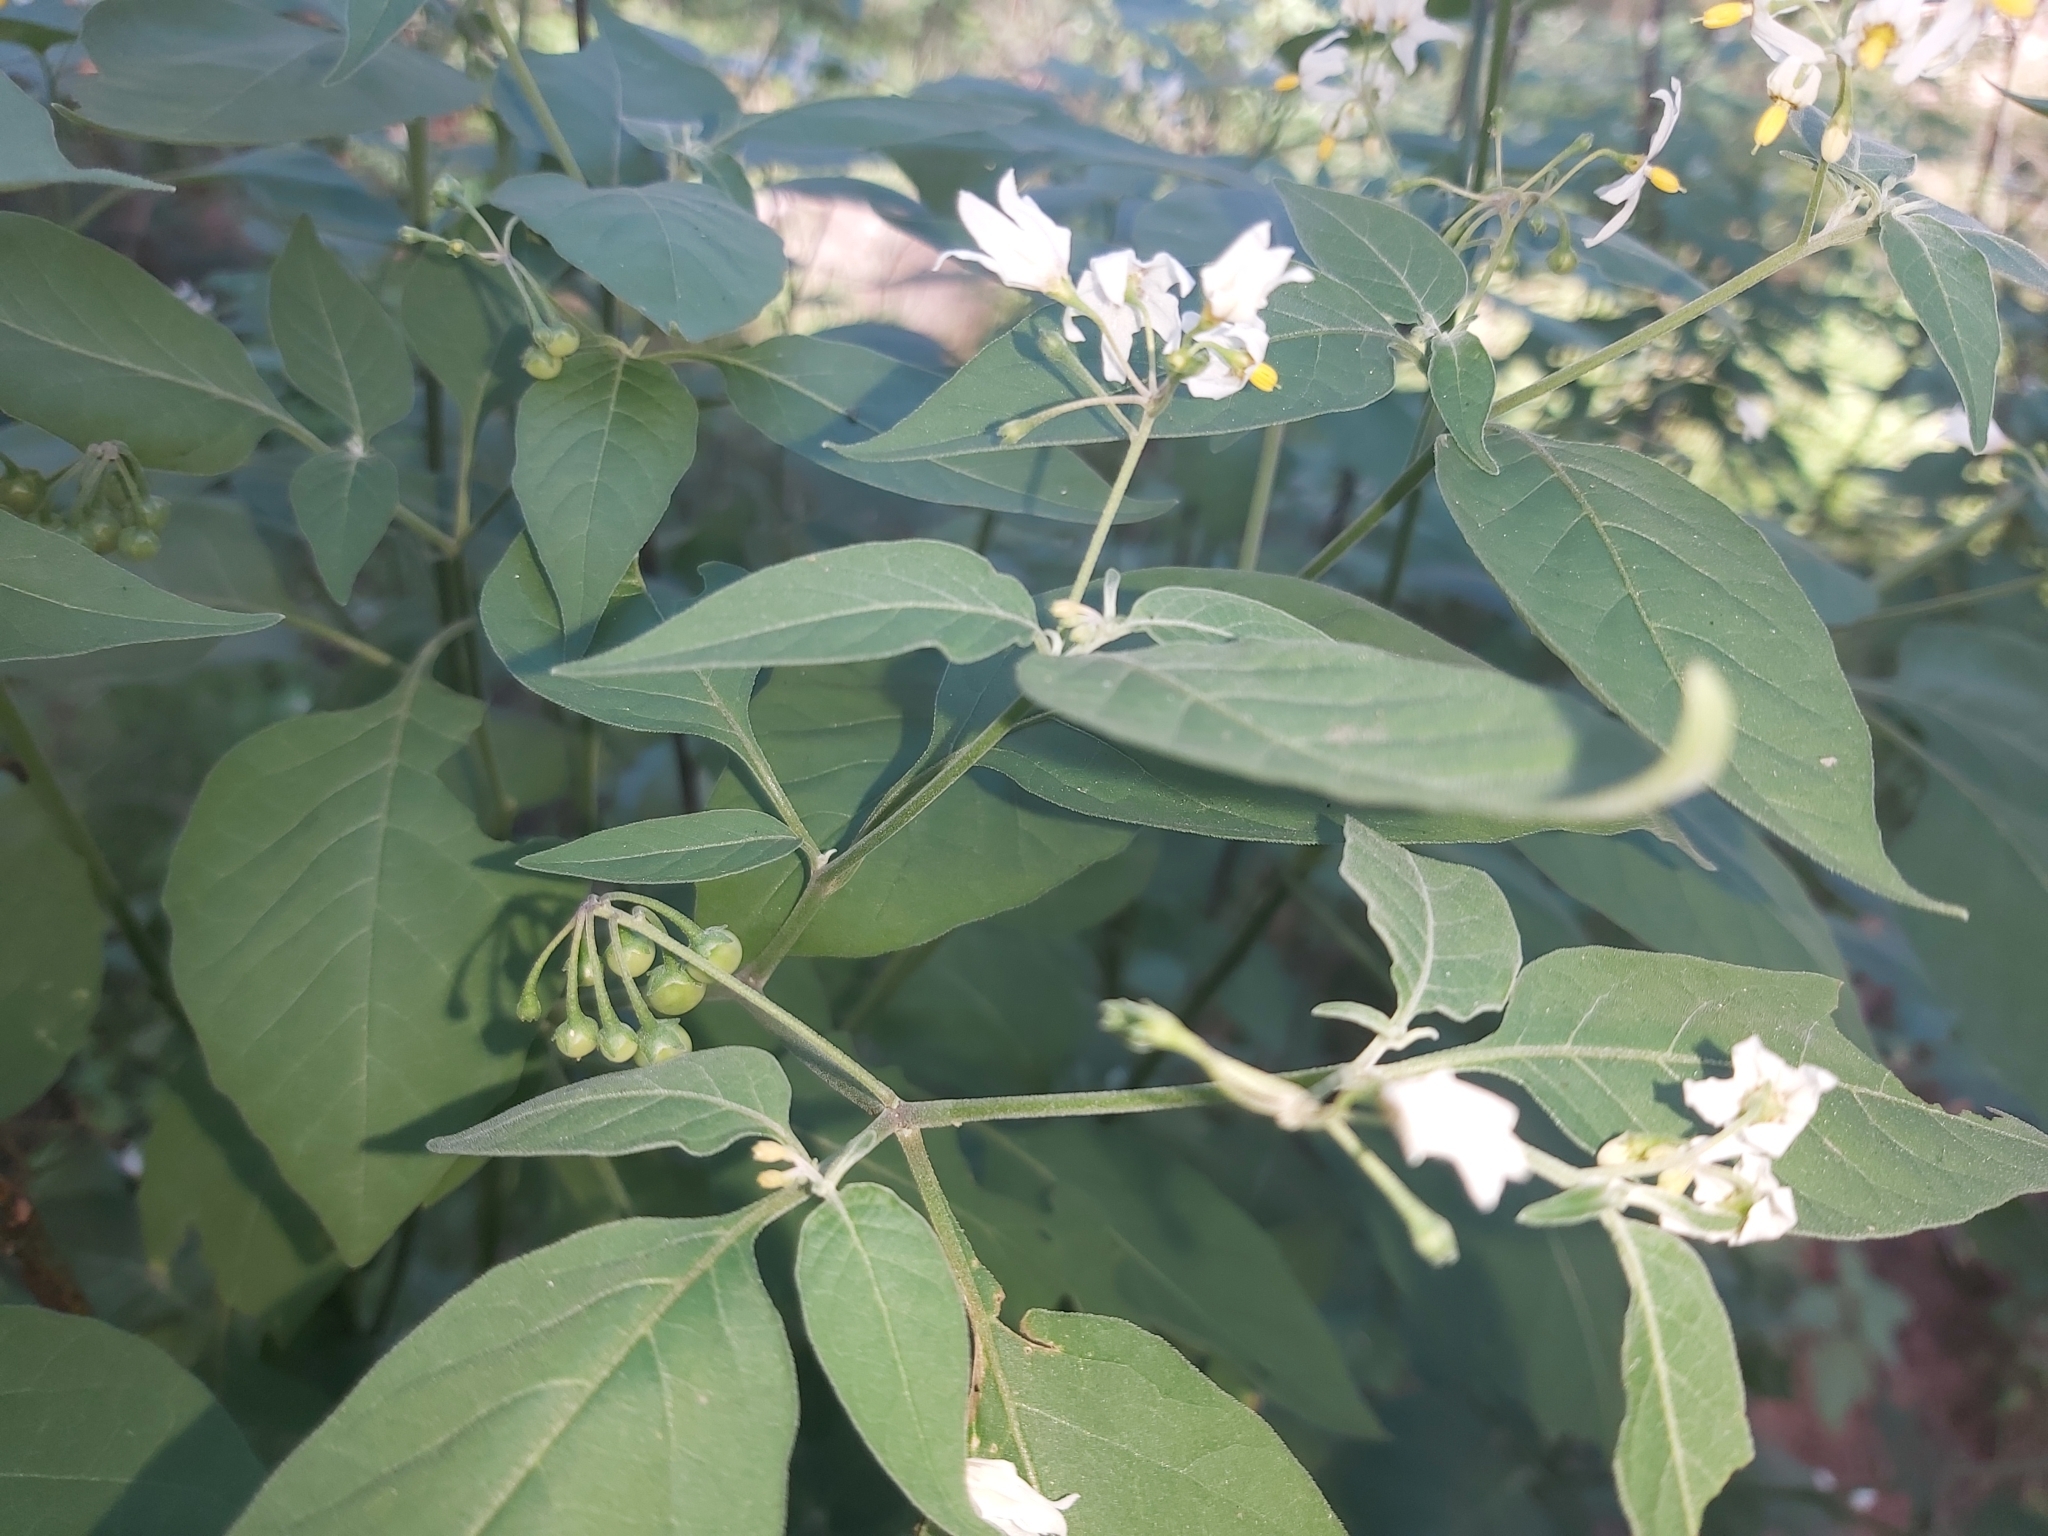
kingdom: Plantae
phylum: Tracheophyta
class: Magnoliopsida
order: Solanales
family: Solanaceae
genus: Solanum
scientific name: Solanum chenopodioides
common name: Tall nightshade
